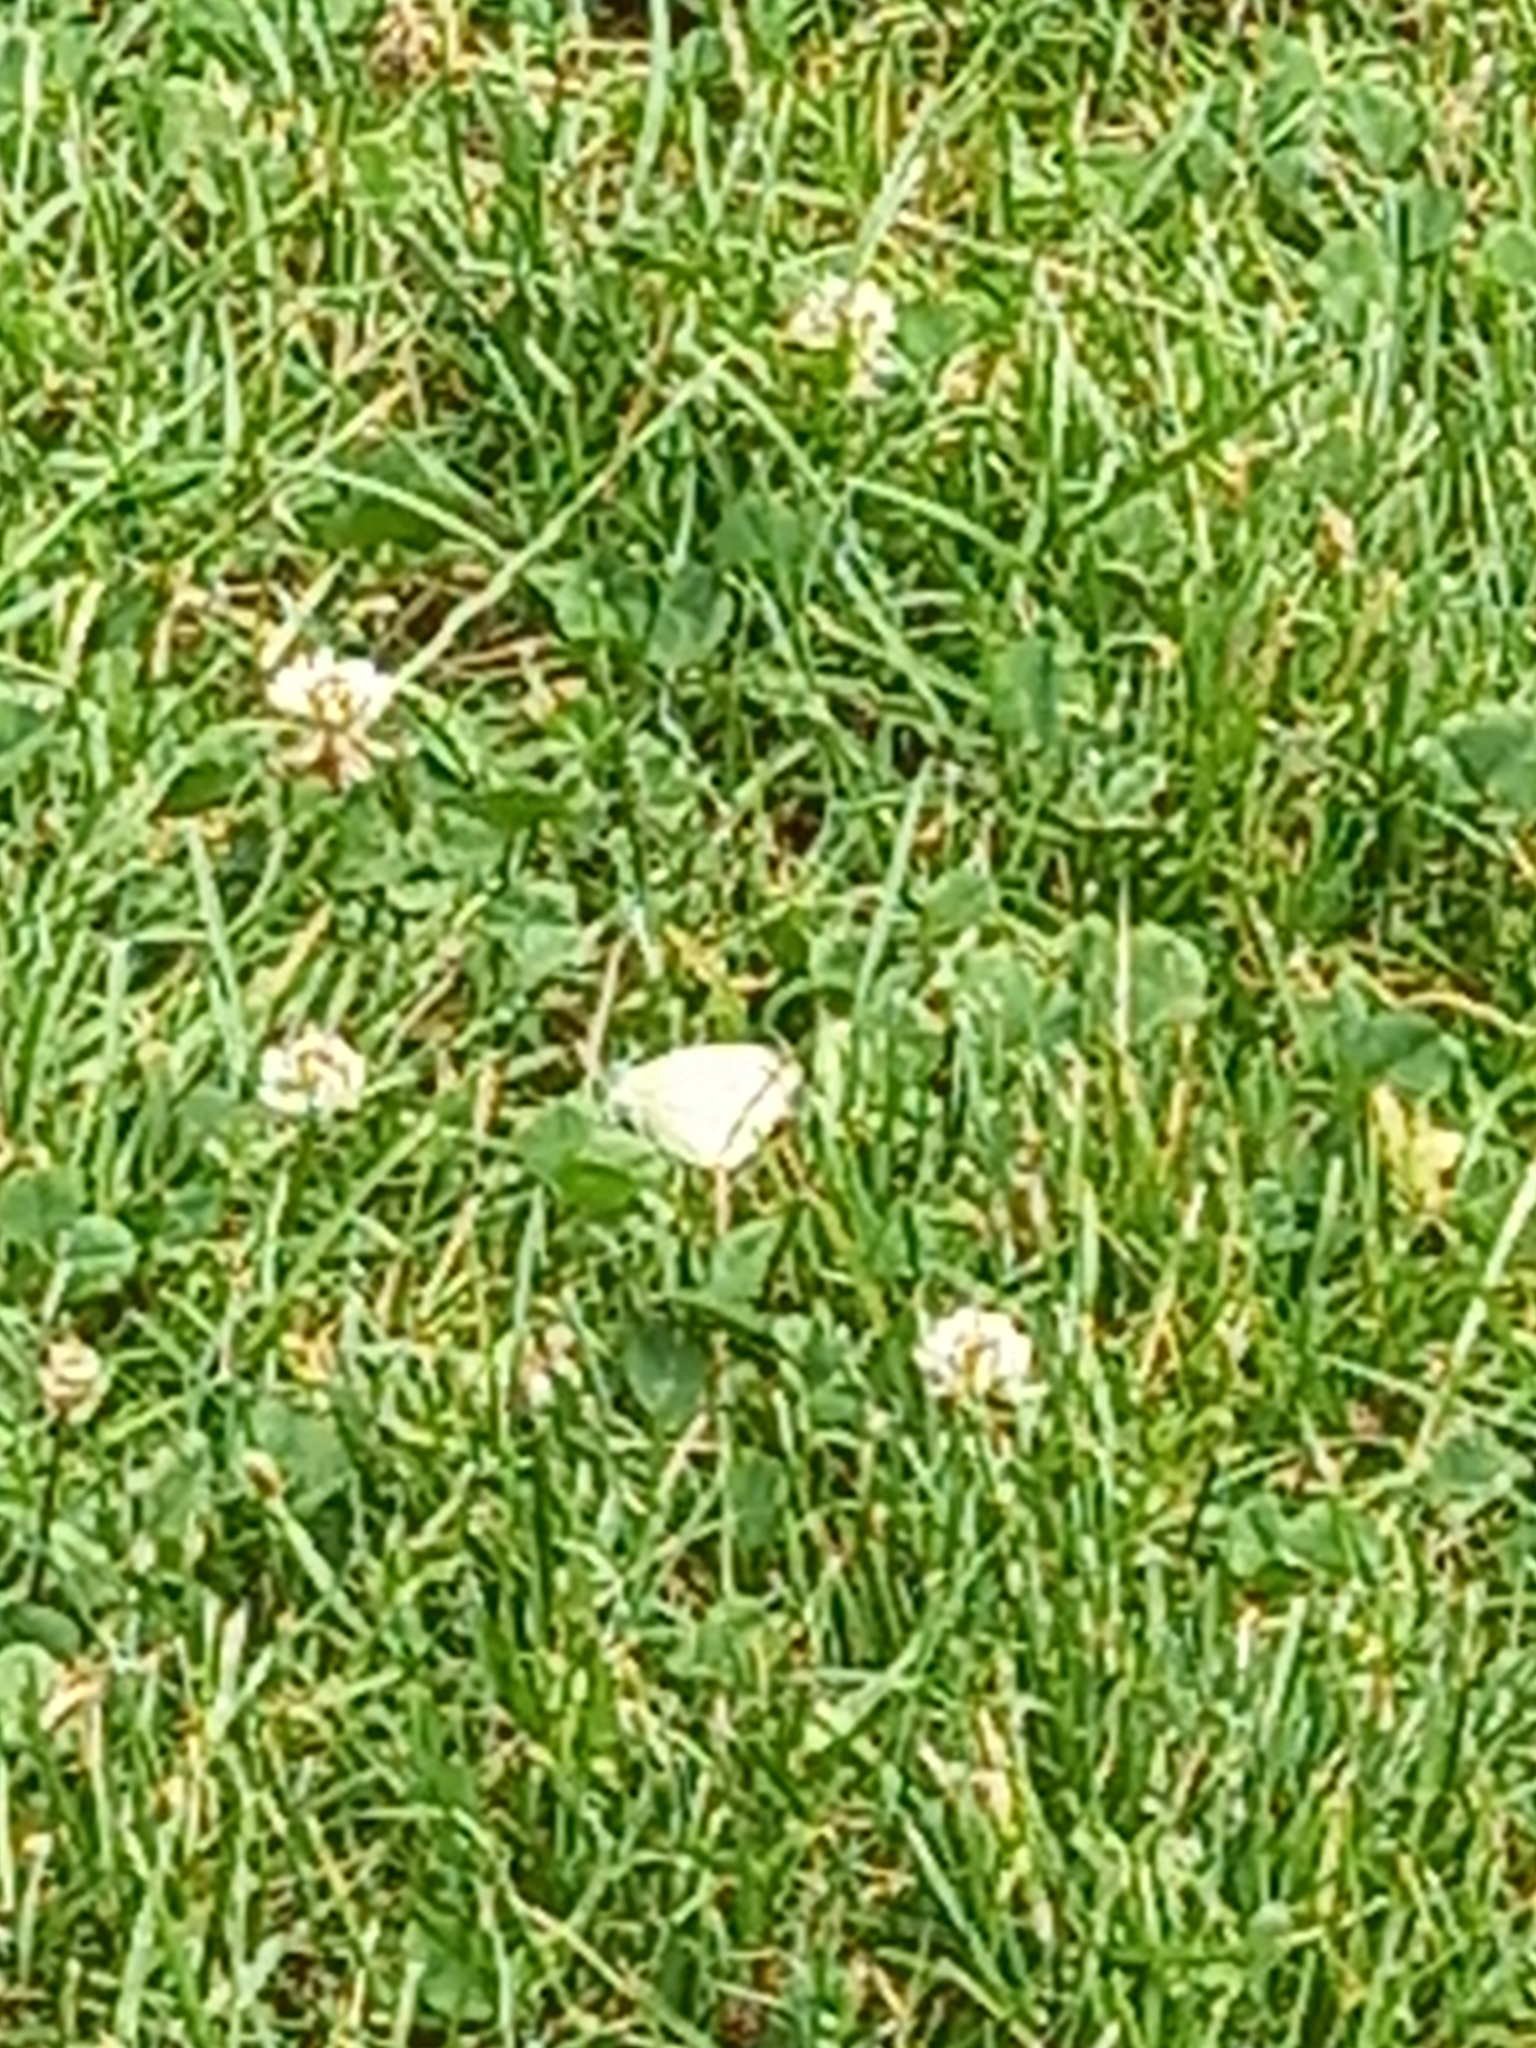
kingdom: Animalia
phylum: Arthropoda
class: Insecta
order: Lepidoptera
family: Pieridae
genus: Pieris
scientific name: Pieris rapae
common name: Small white
